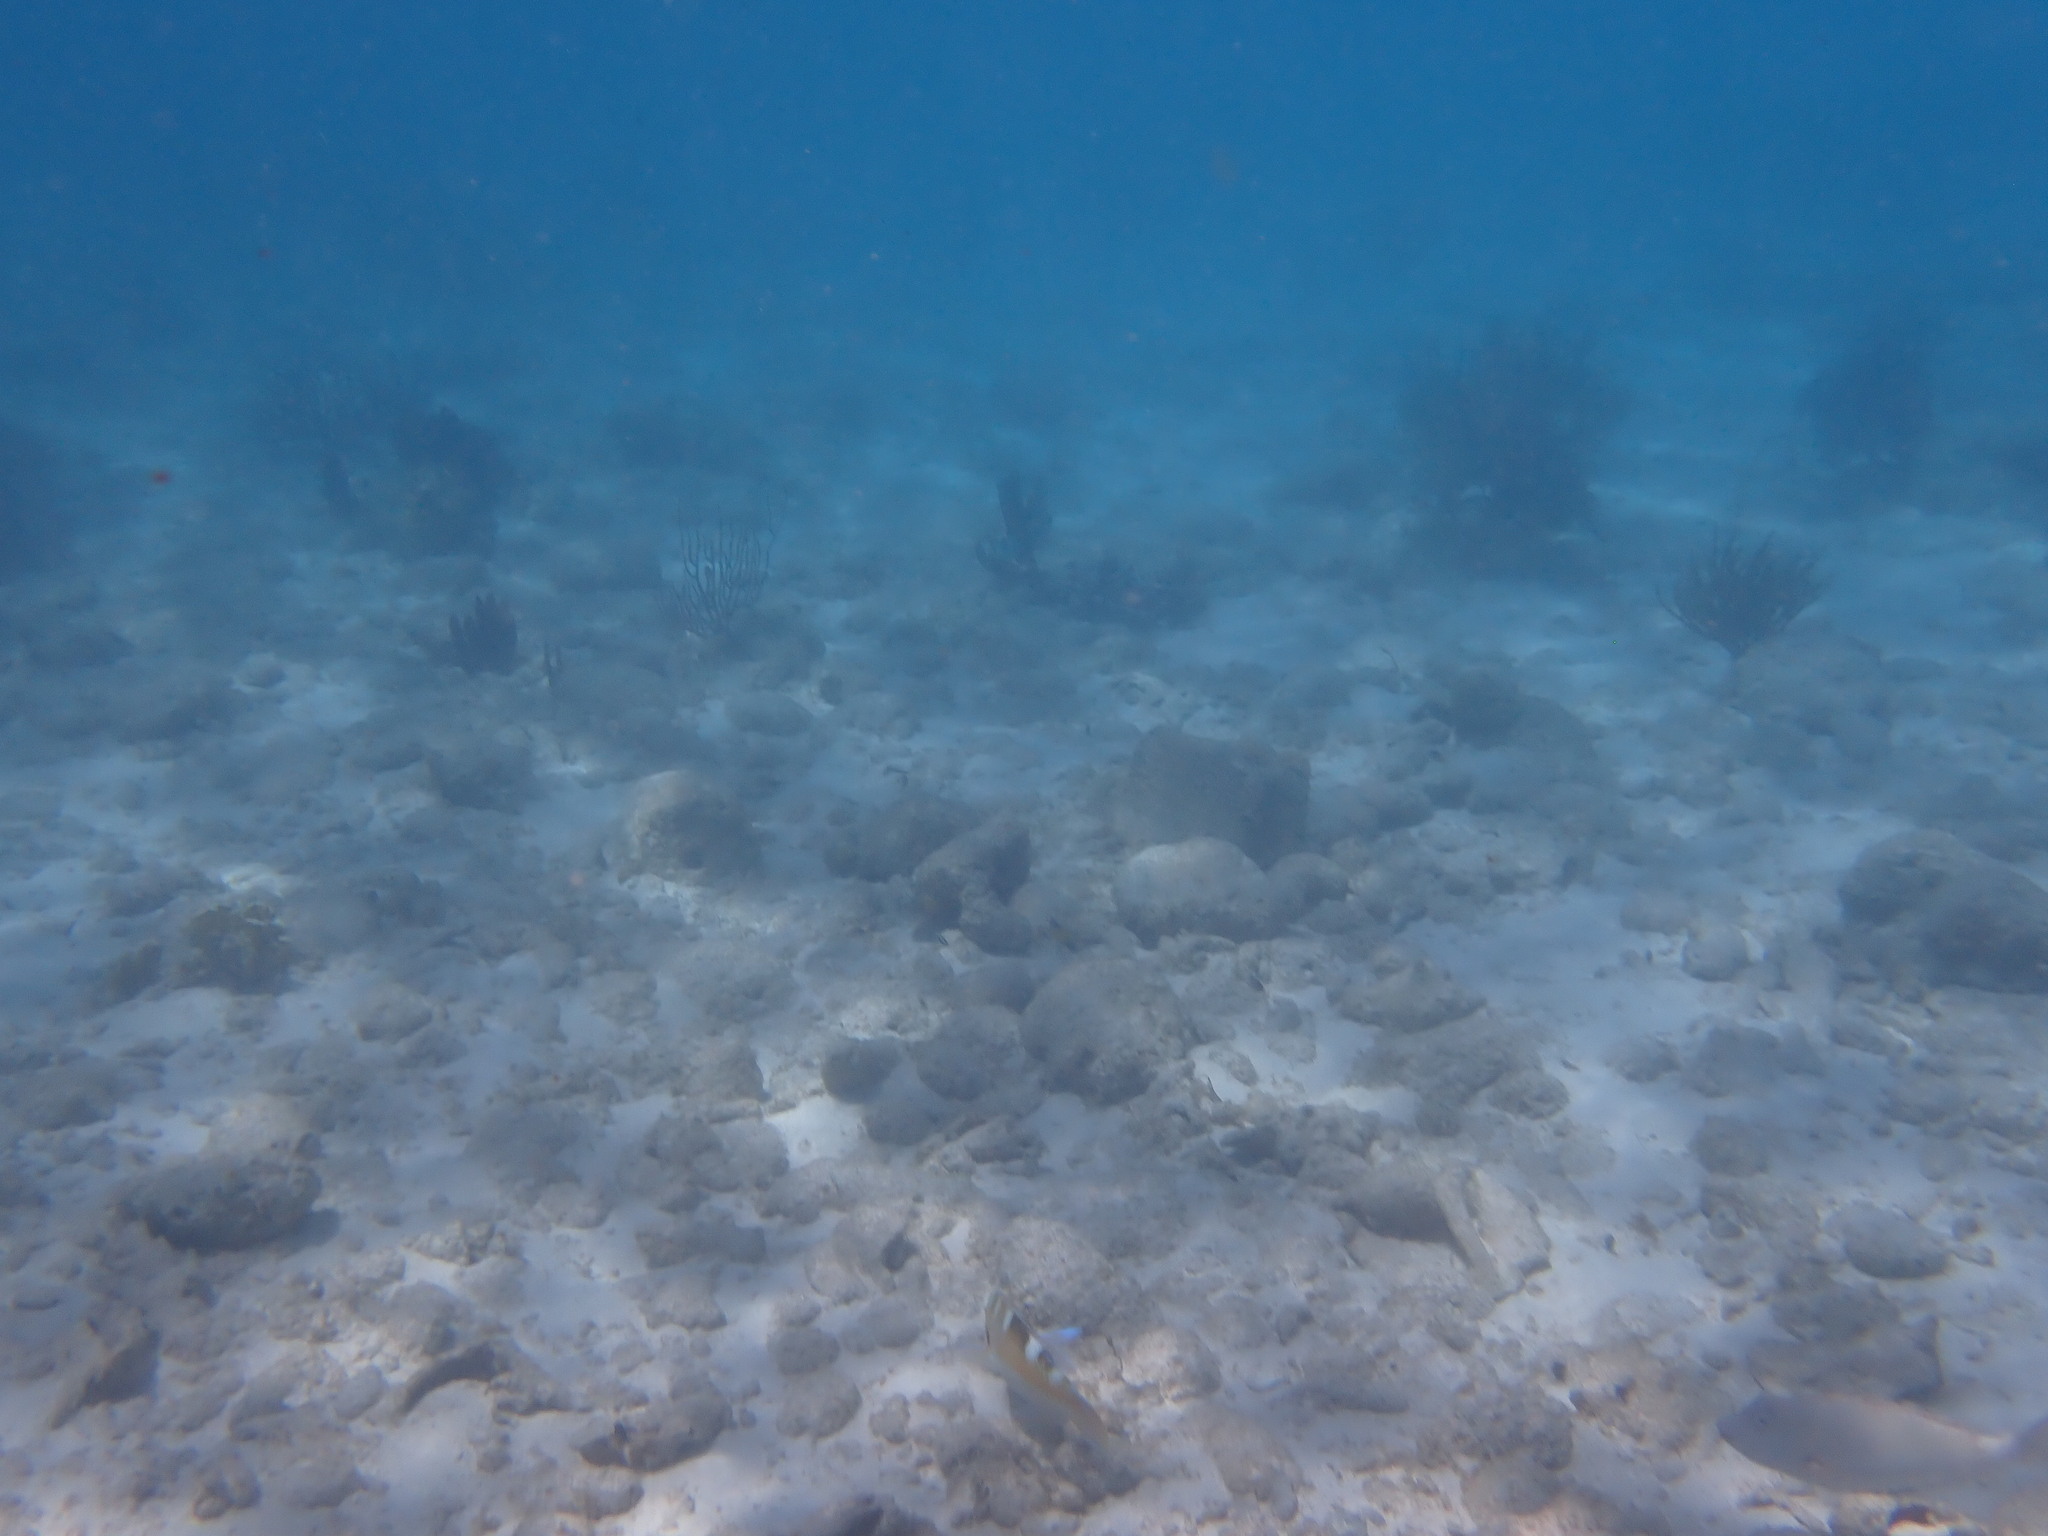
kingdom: Animalia
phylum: Chordata
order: Perciformes
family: Scaridae
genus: Sparisoma
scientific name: Sparisoma rubripinne
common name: Redfin parrotfish
